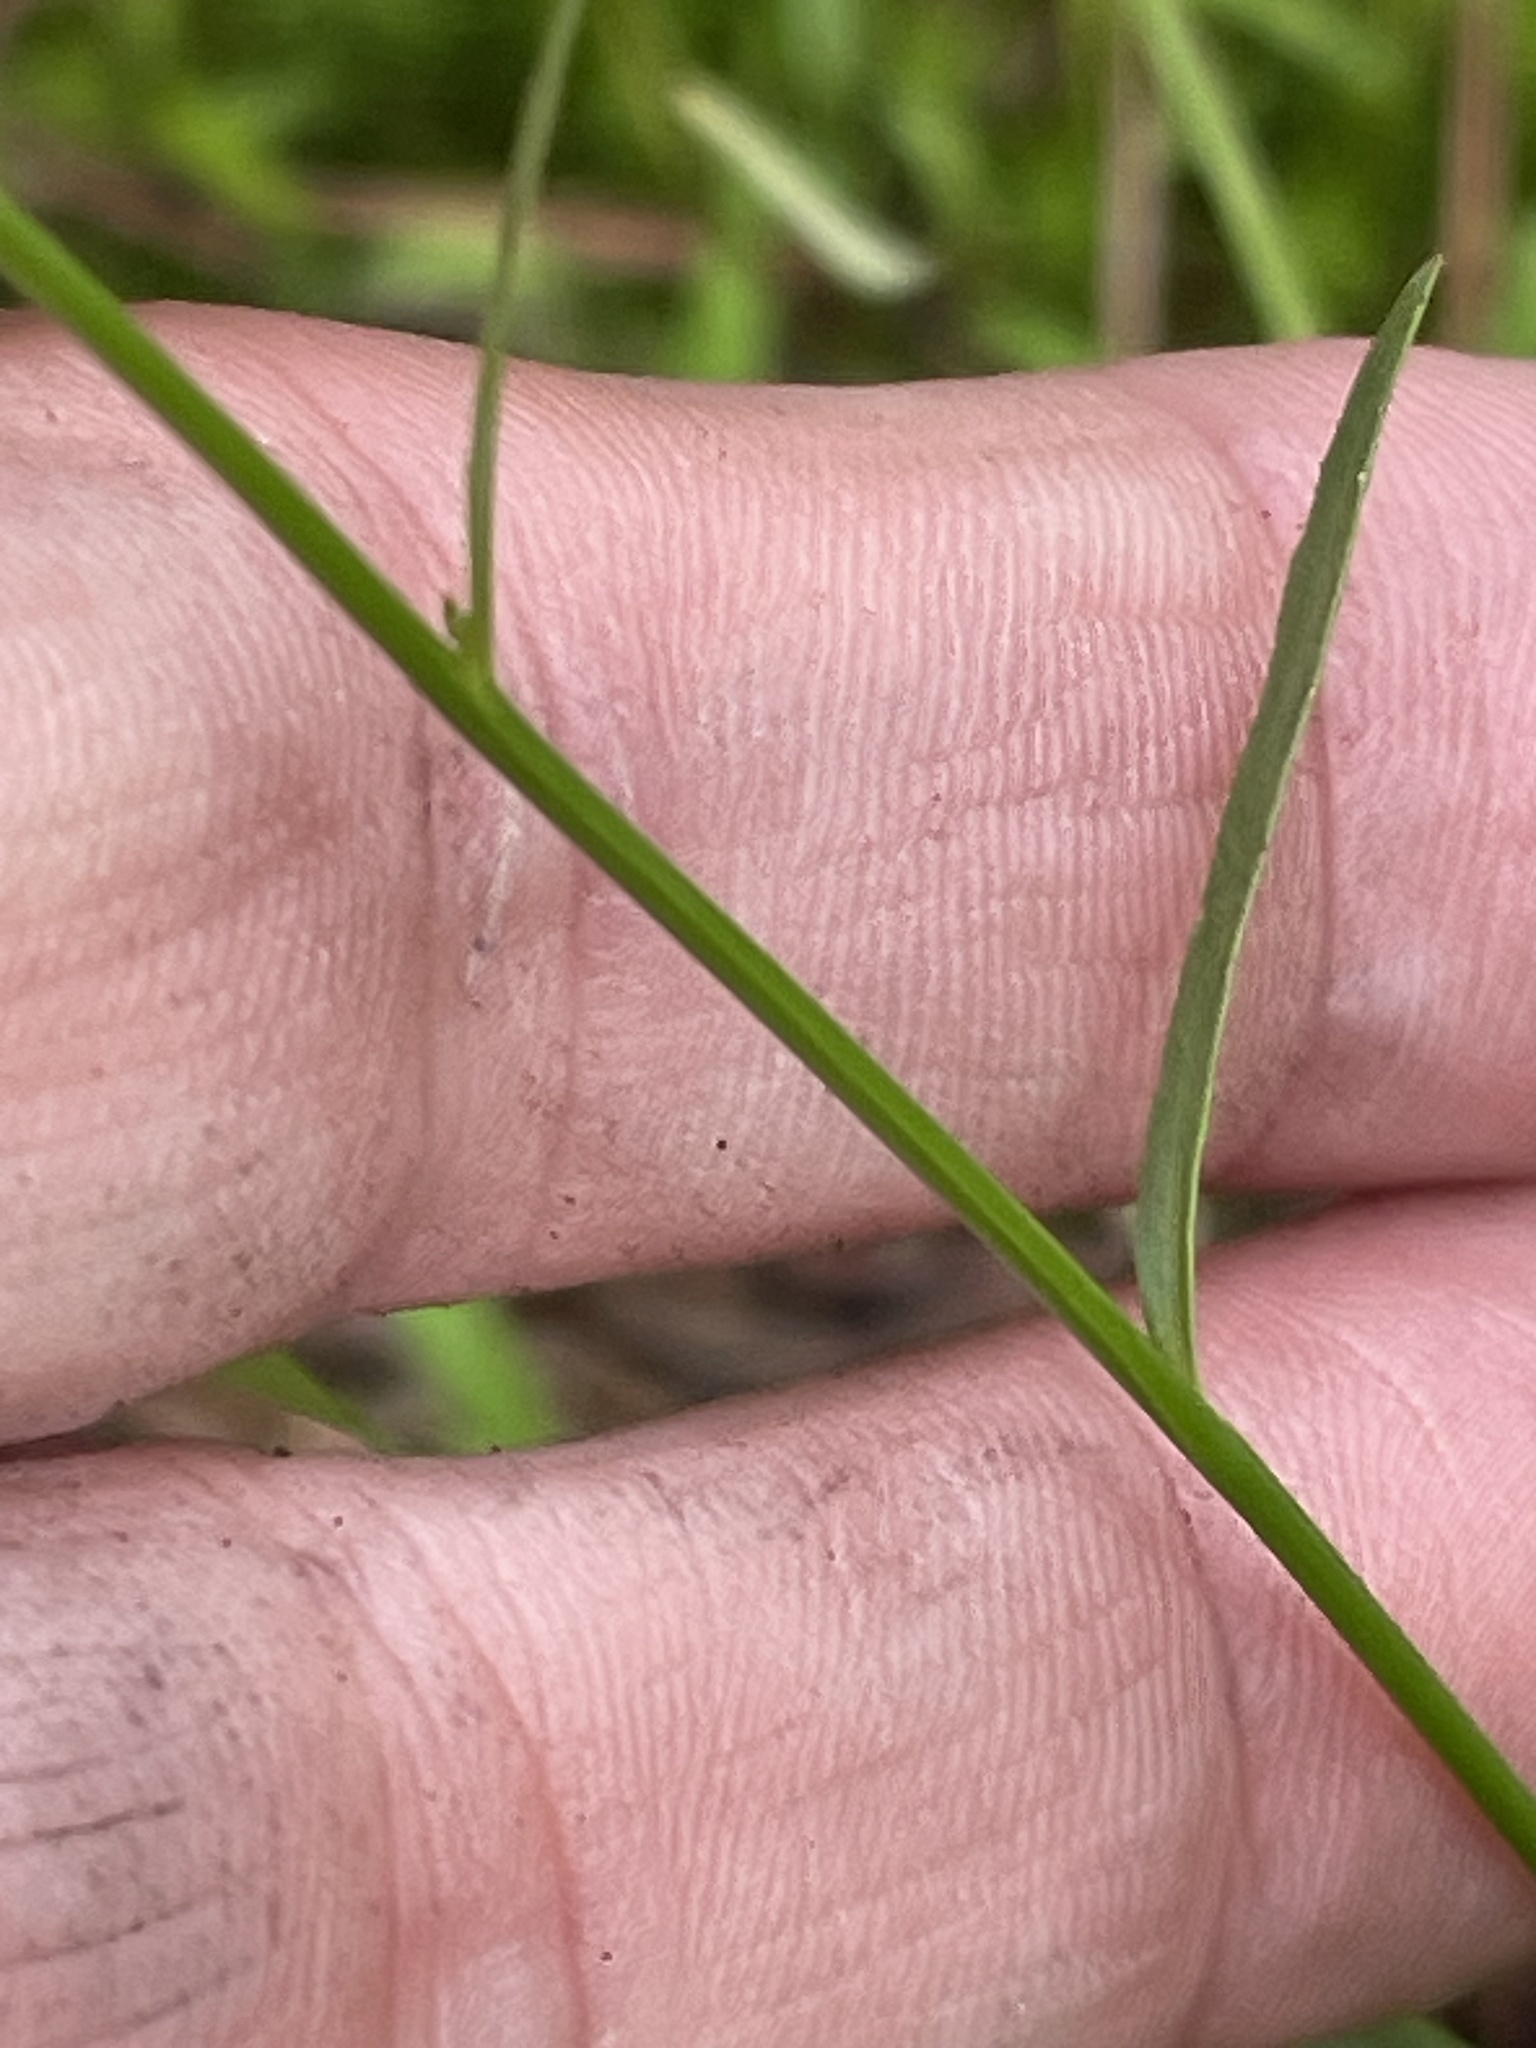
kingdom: Plantae
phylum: Tracheophyta
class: Magnoliopsida
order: Asterales
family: Campanulaceae
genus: Lobelia
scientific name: Lobelia nuttallii
